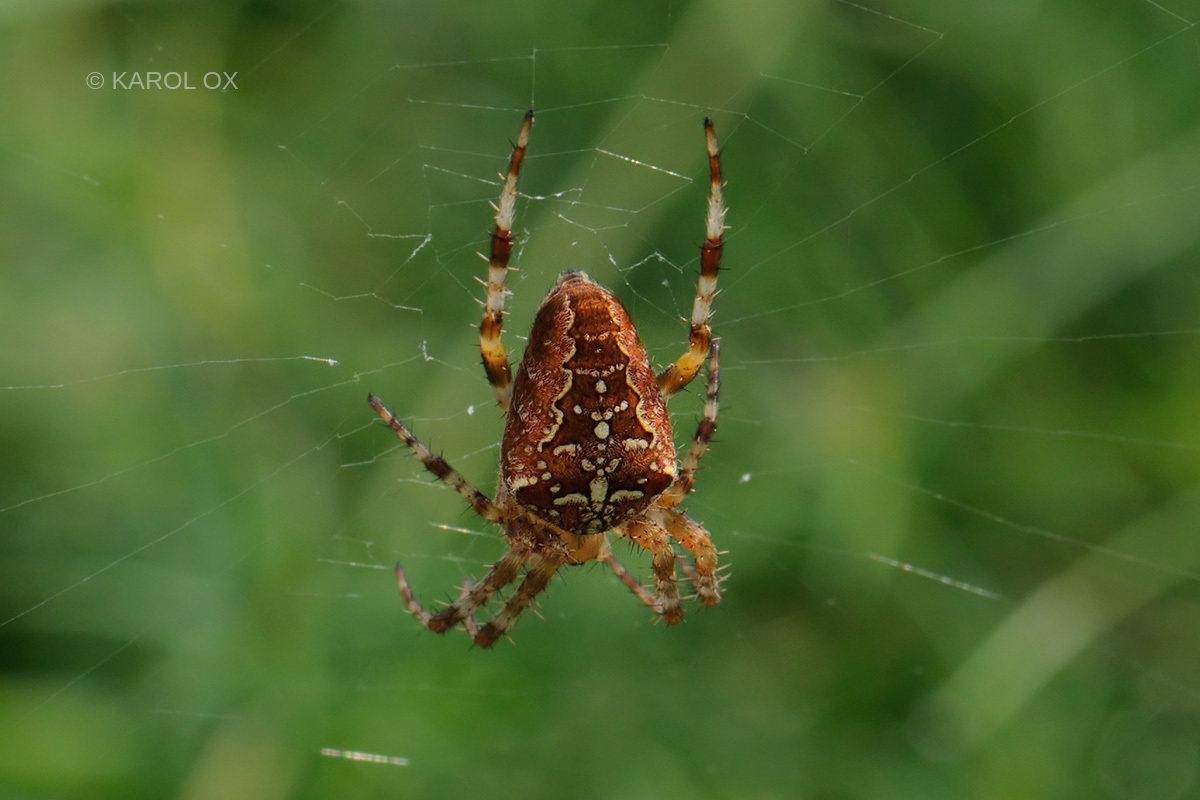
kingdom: Animalia
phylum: Arthropoda
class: Arachnida
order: Araneae
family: Araneidae
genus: Araneus
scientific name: Araneus diadematus
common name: Cross orbweaver
